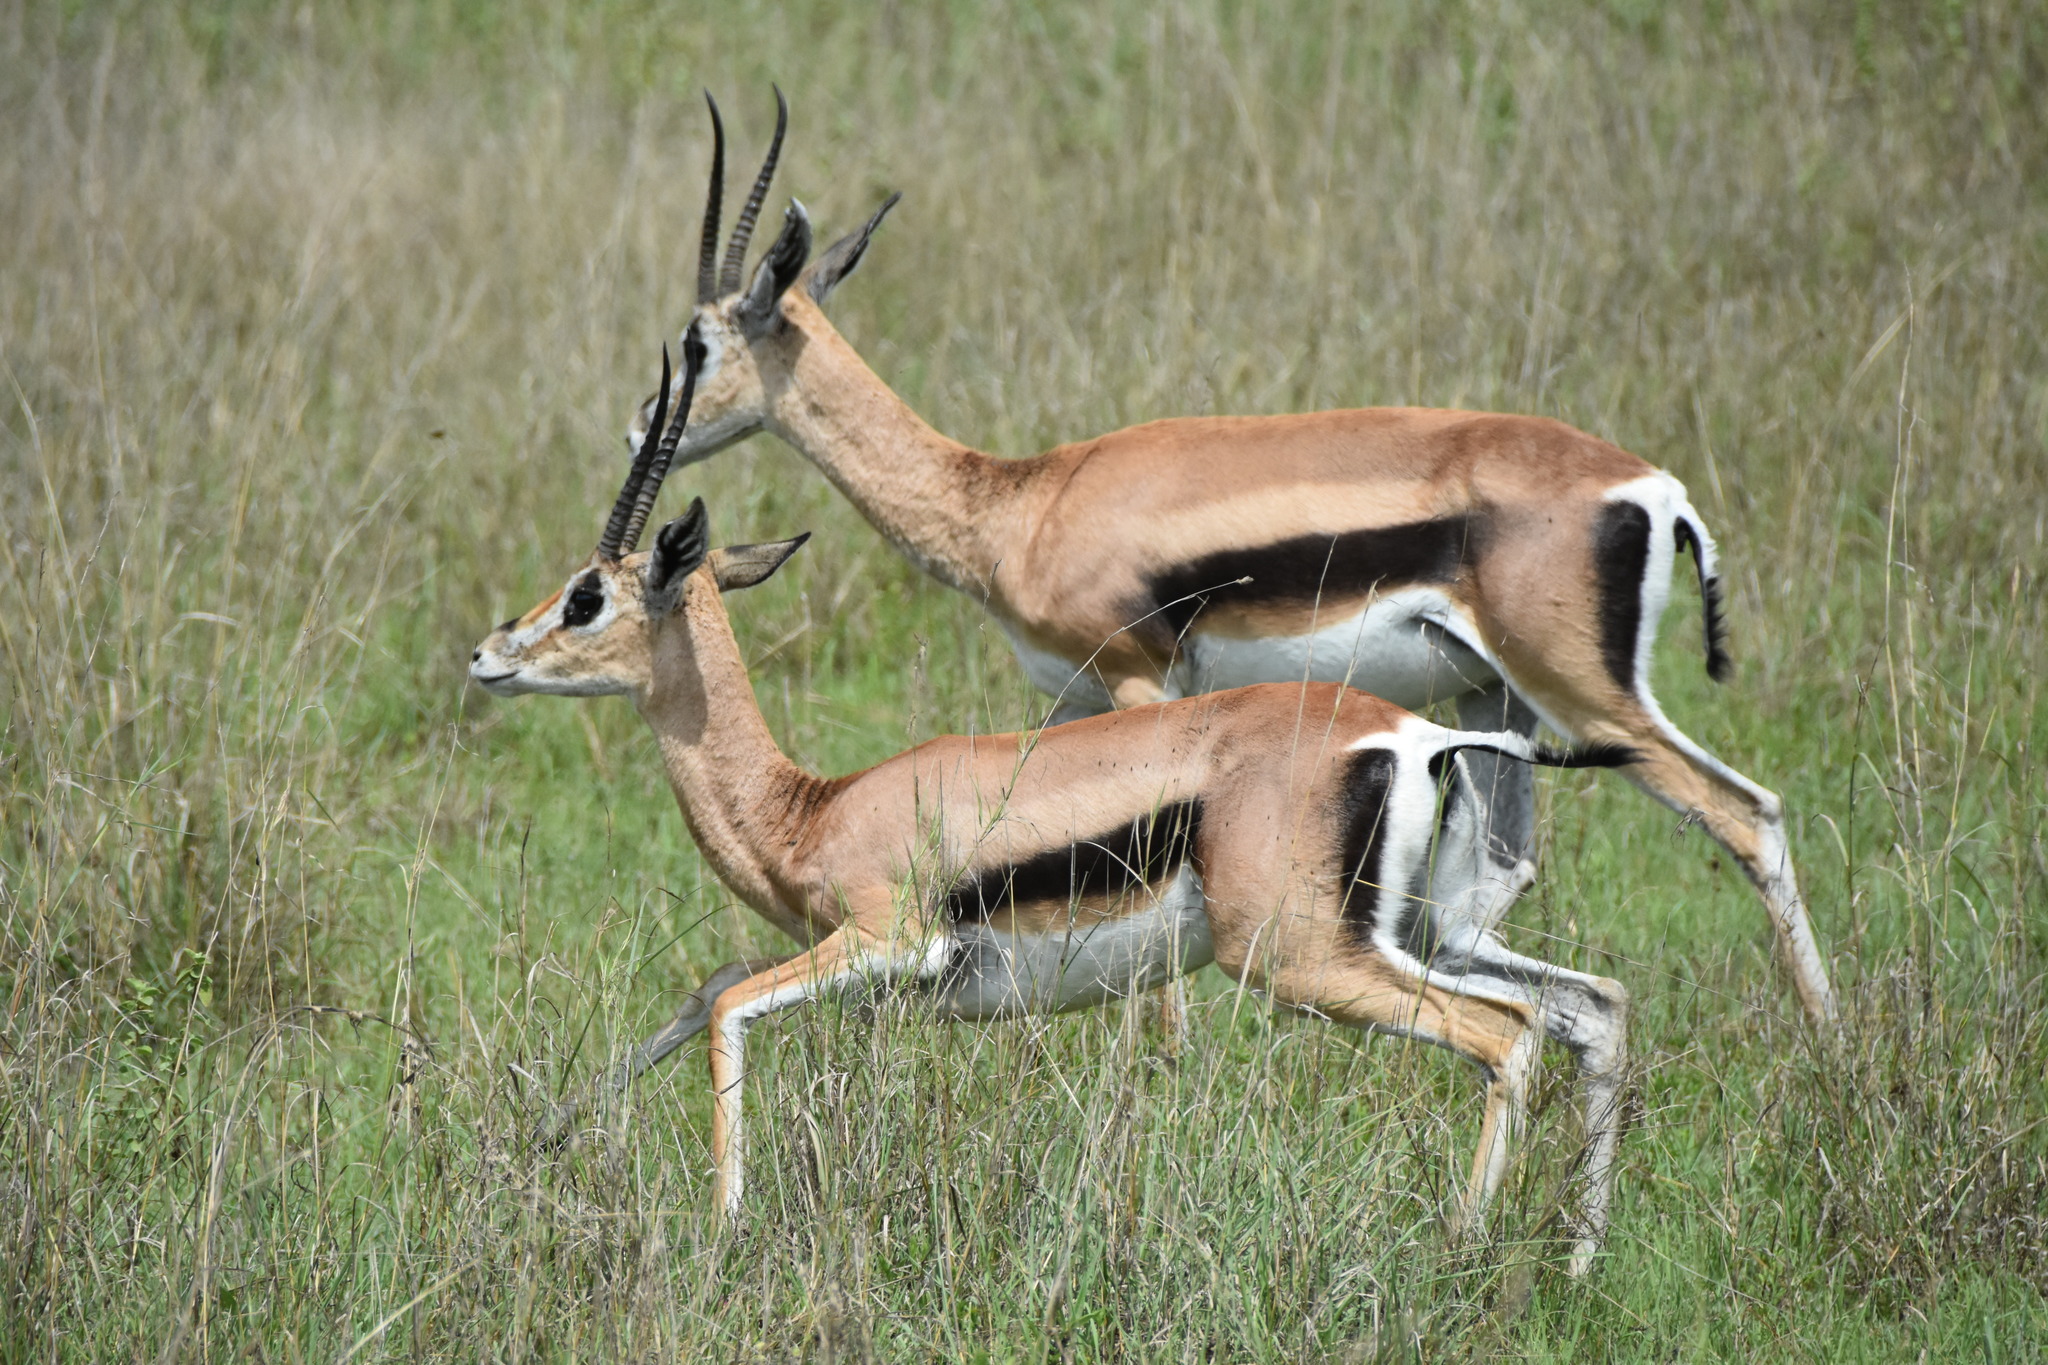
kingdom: Animalia
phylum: Chordata
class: Mammalia
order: Artiodactyla
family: Bovidae
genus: Nanger
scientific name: Nanger granti
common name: Grant's gazelle
